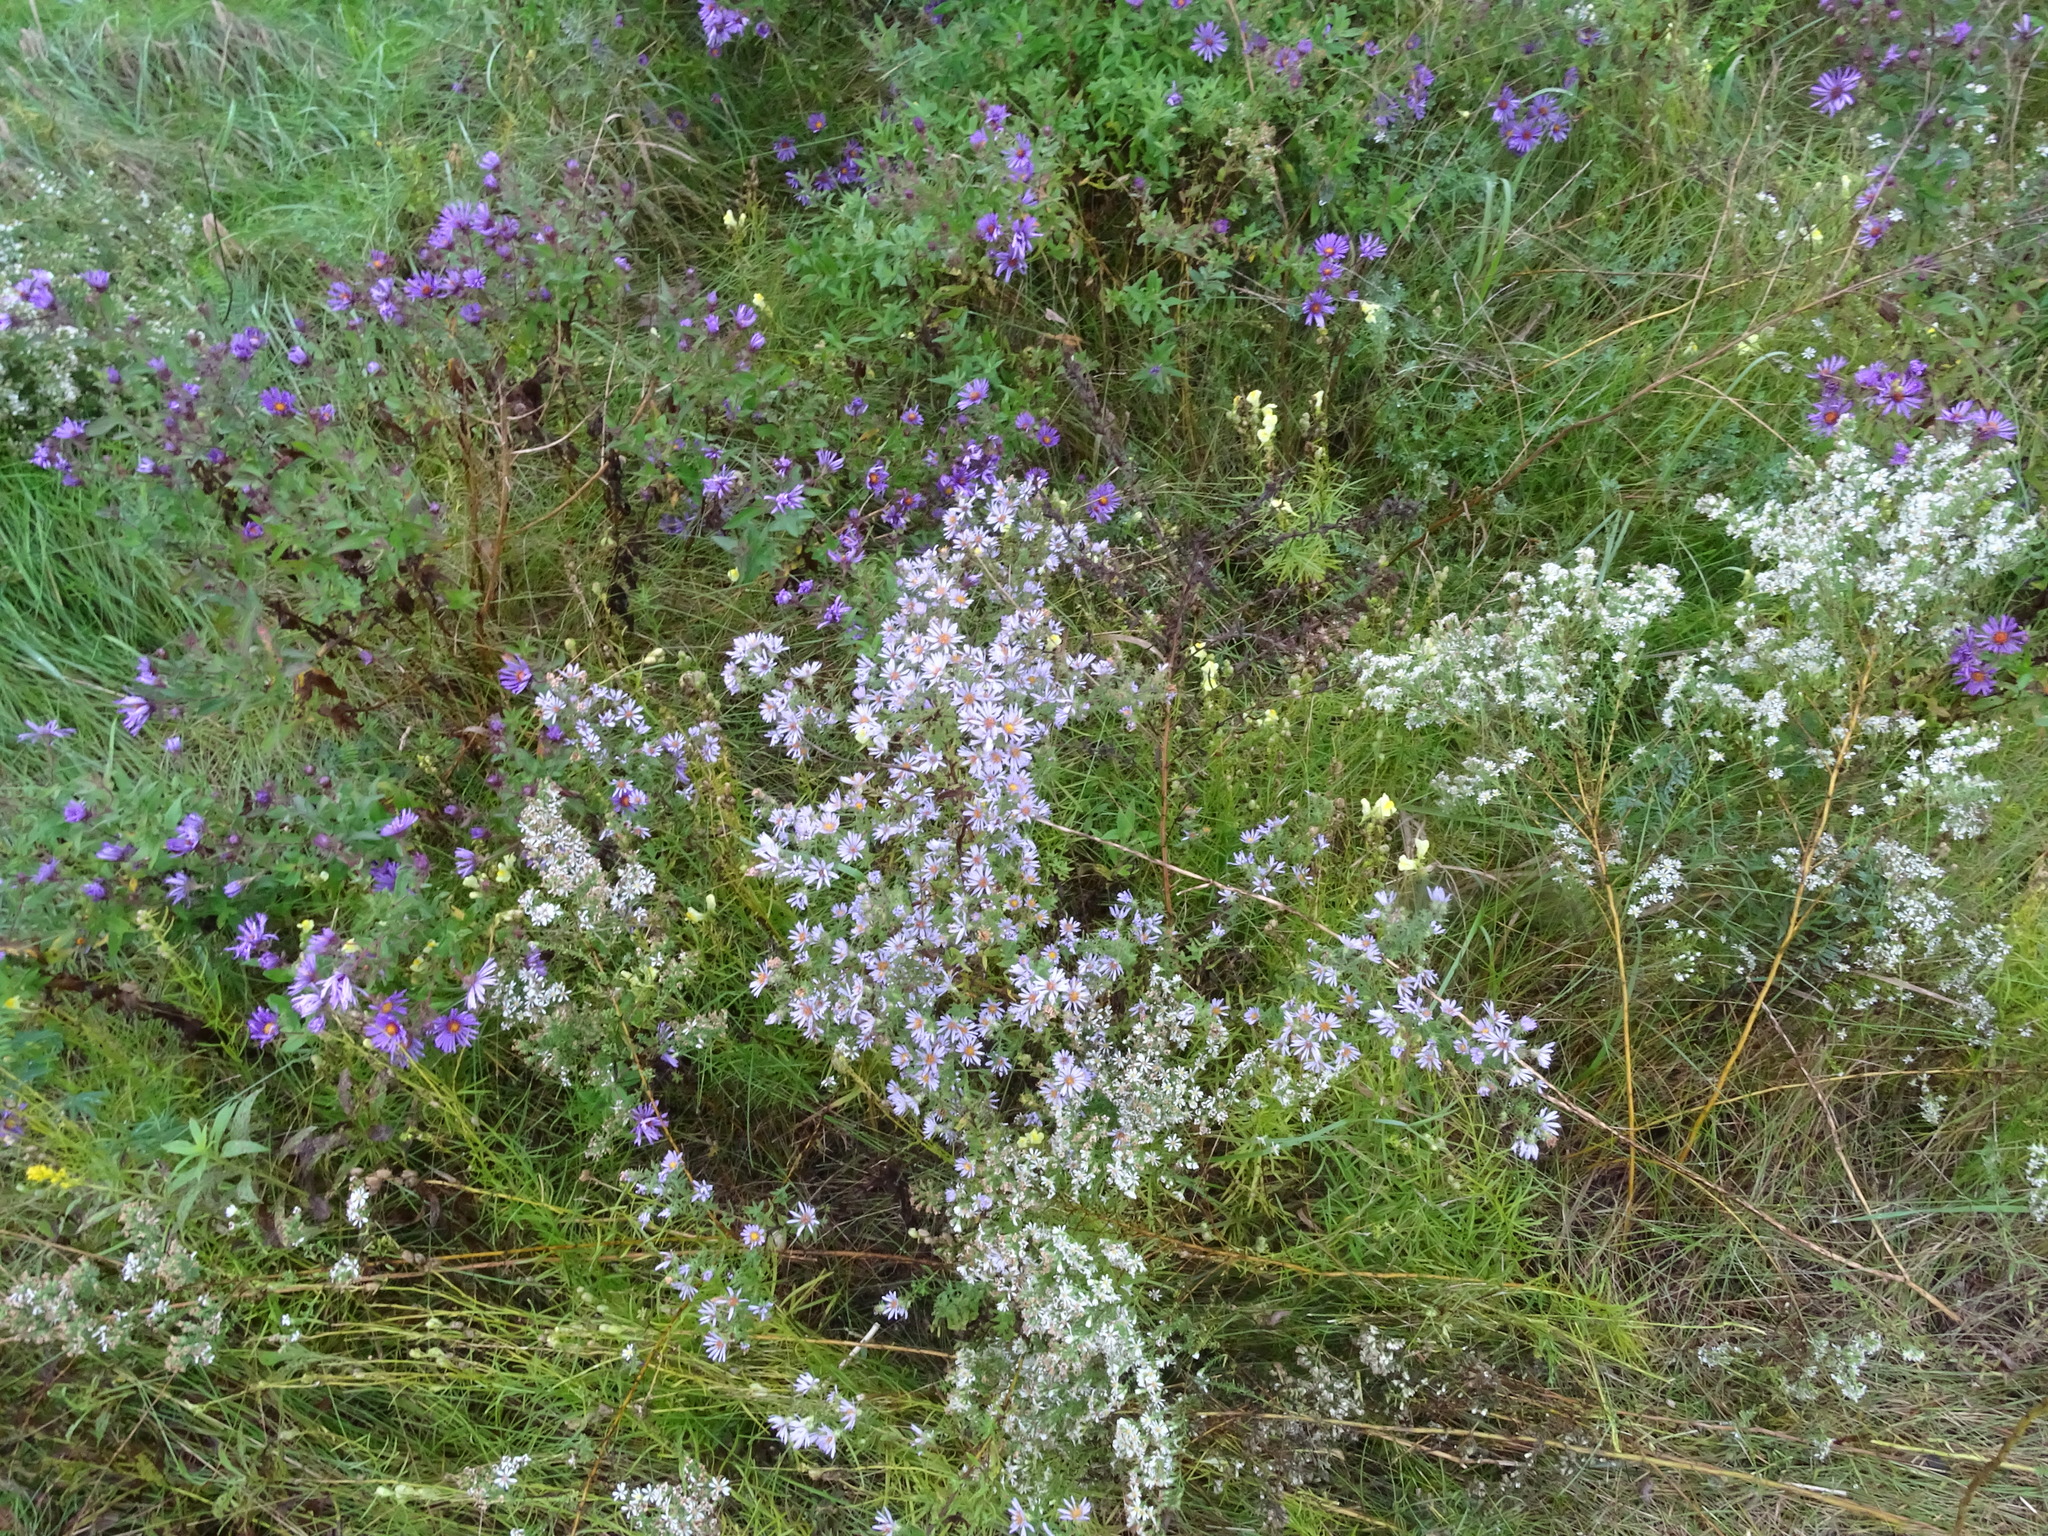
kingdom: Plantae
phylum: Tracheophyta
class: Magnoliopsida
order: Asterales
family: Asteraceae
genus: Symphyotrichum
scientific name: Symphyotrichum amethystinum
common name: Amethyst aster
